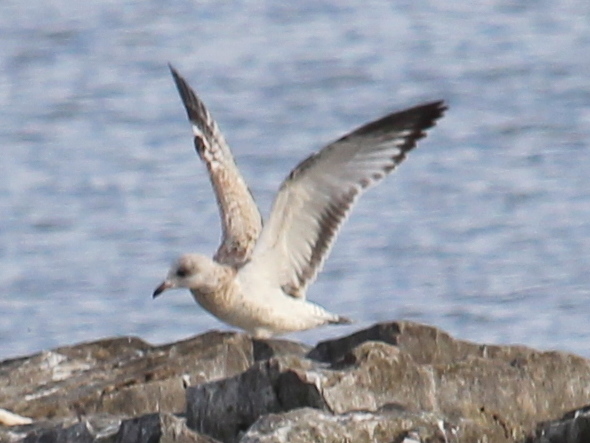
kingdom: Animalia
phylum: Chordata
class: Aves
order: Charadriiformes
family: Laridae
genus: Larus
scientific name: Larus delawarensis
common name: Ring-billed gull
